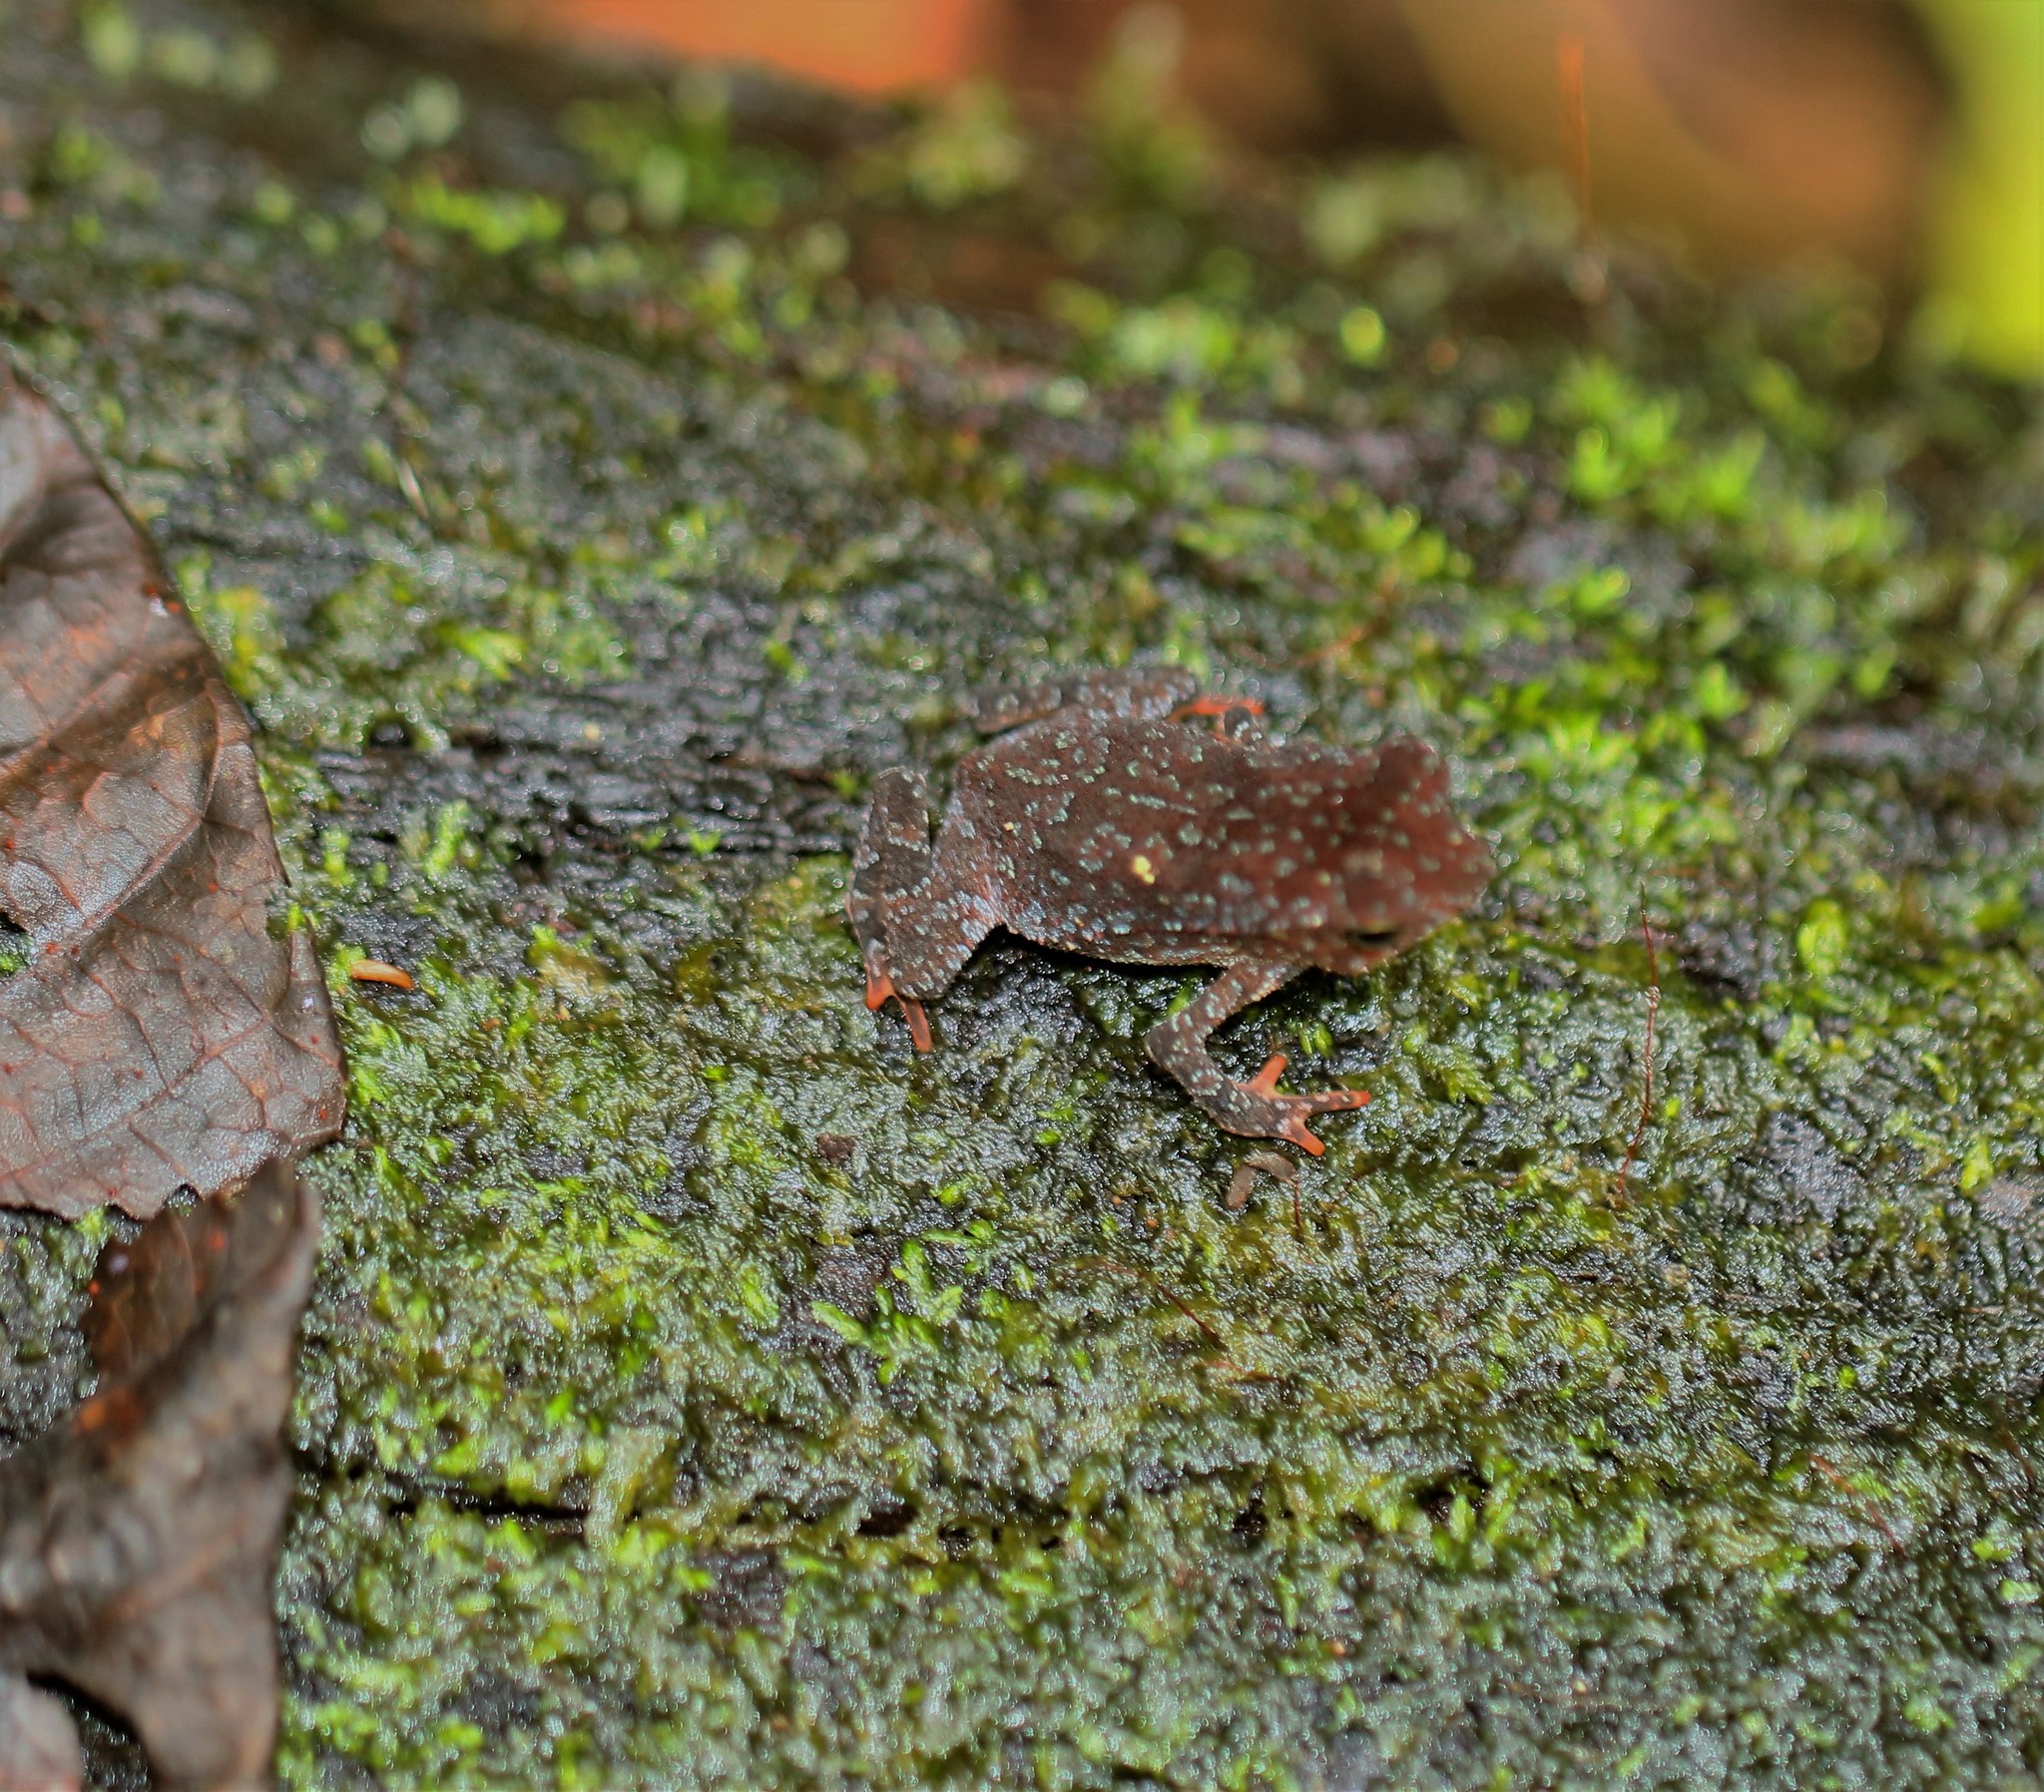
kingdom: Animalia
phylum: Chordata
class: Amphibia
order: Anura
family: Bufonidae
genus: Rhinella
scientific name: Rhinella alata
